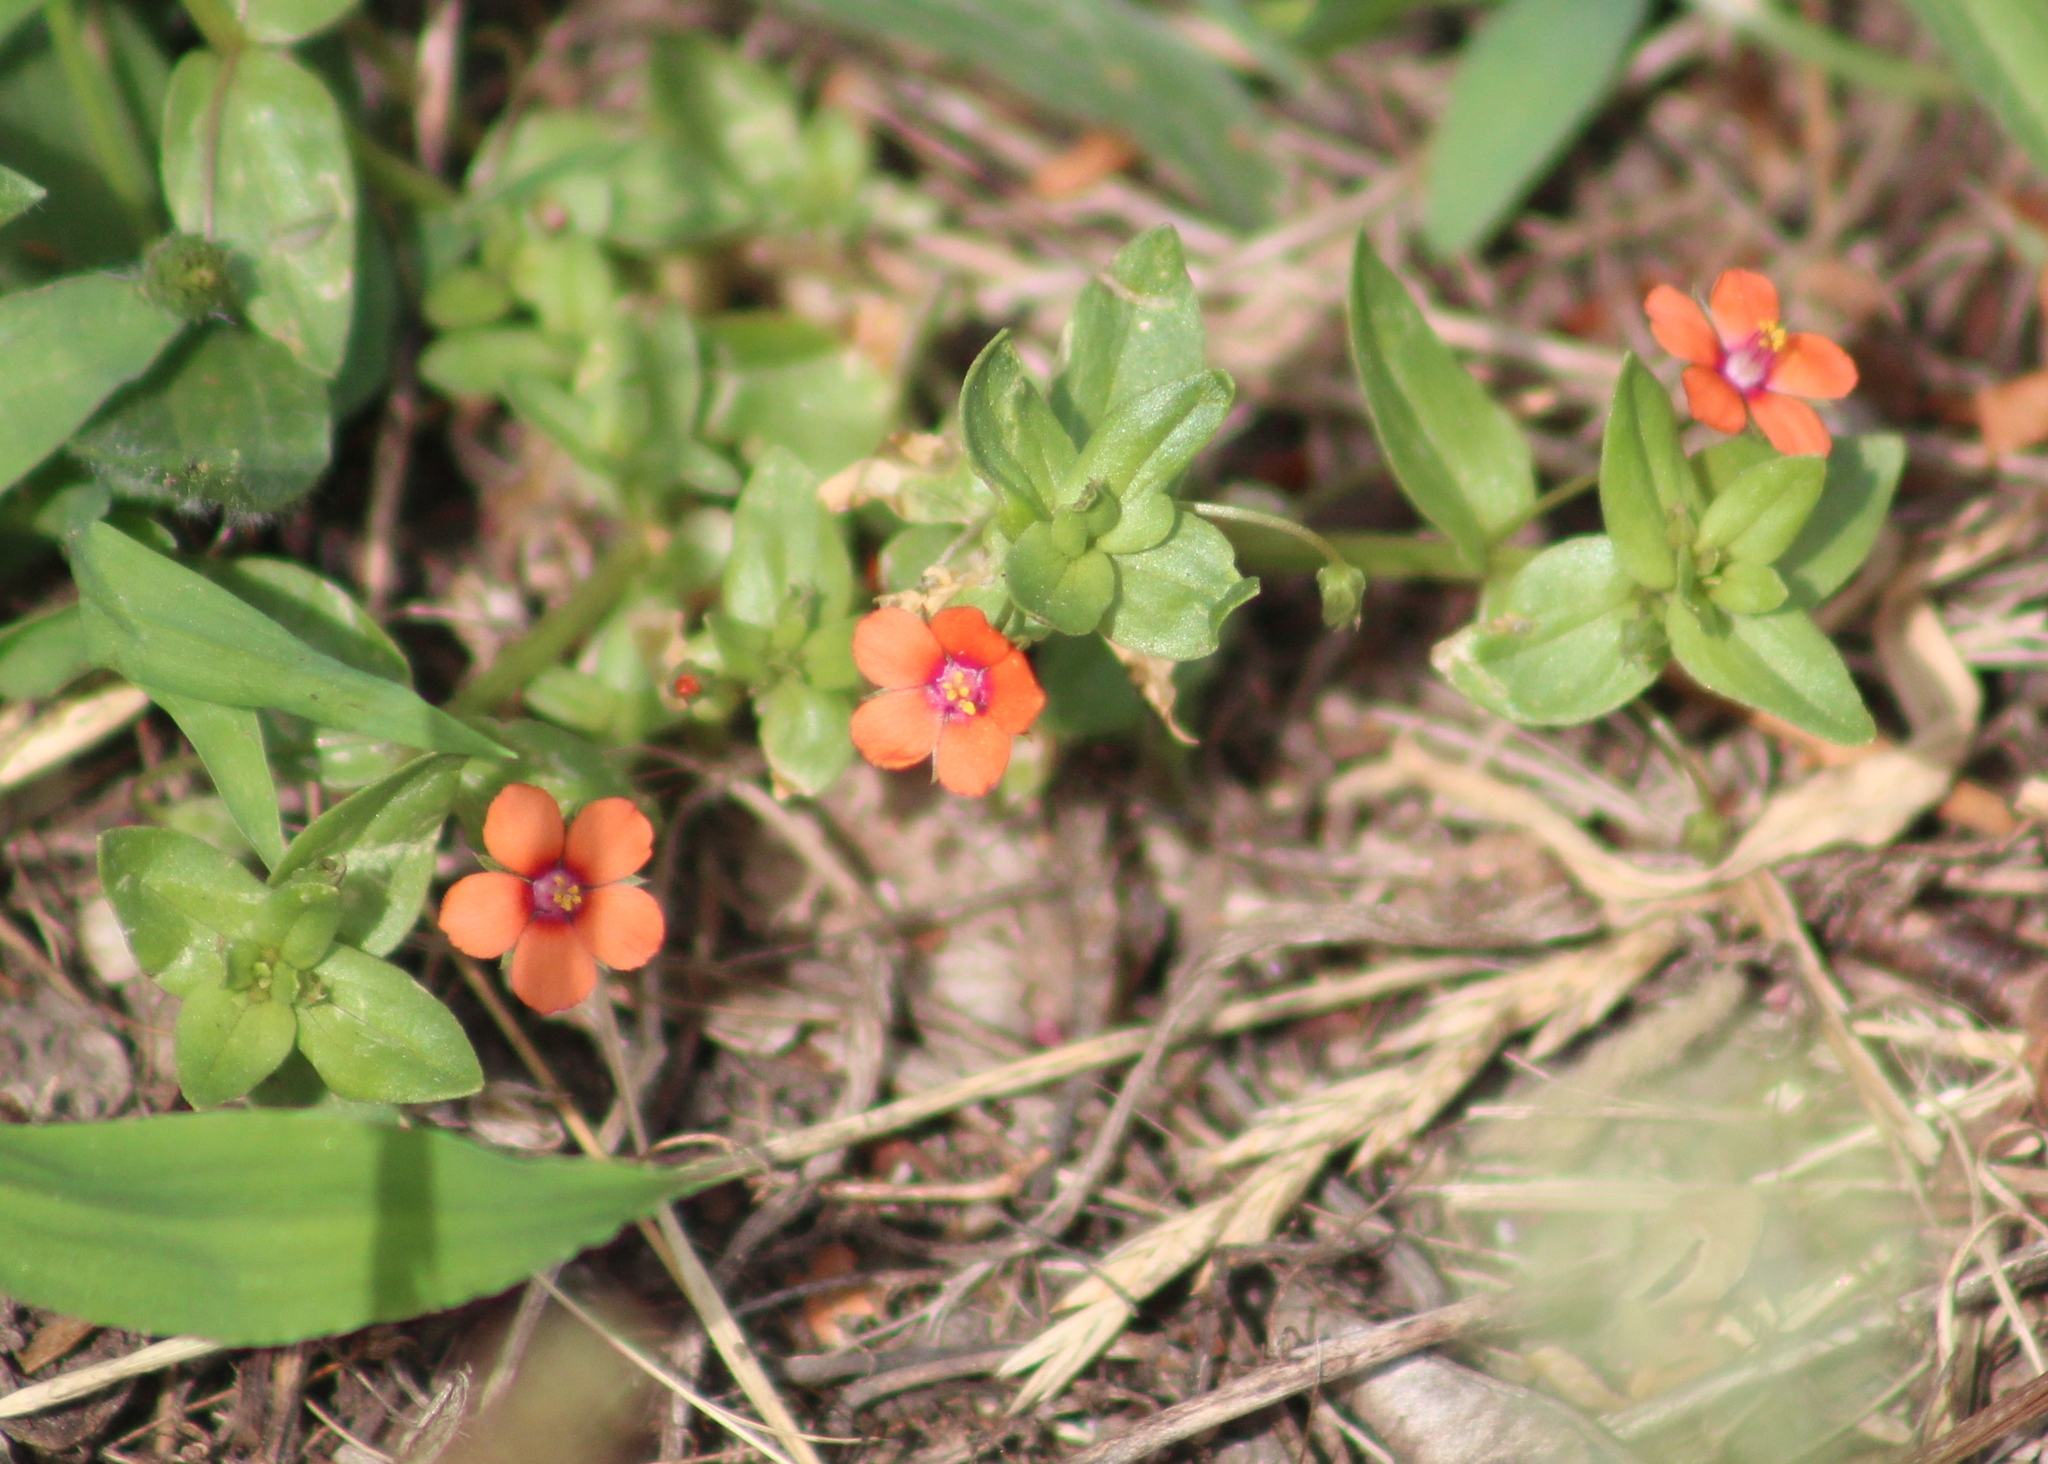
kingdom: Plantae
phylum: Tracheophyta
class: Magnoliopsida
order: Ericales
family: Primulaceae
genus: Lysimachia
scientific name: Lysimachia arvensis
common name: Scarlet pimpernel
